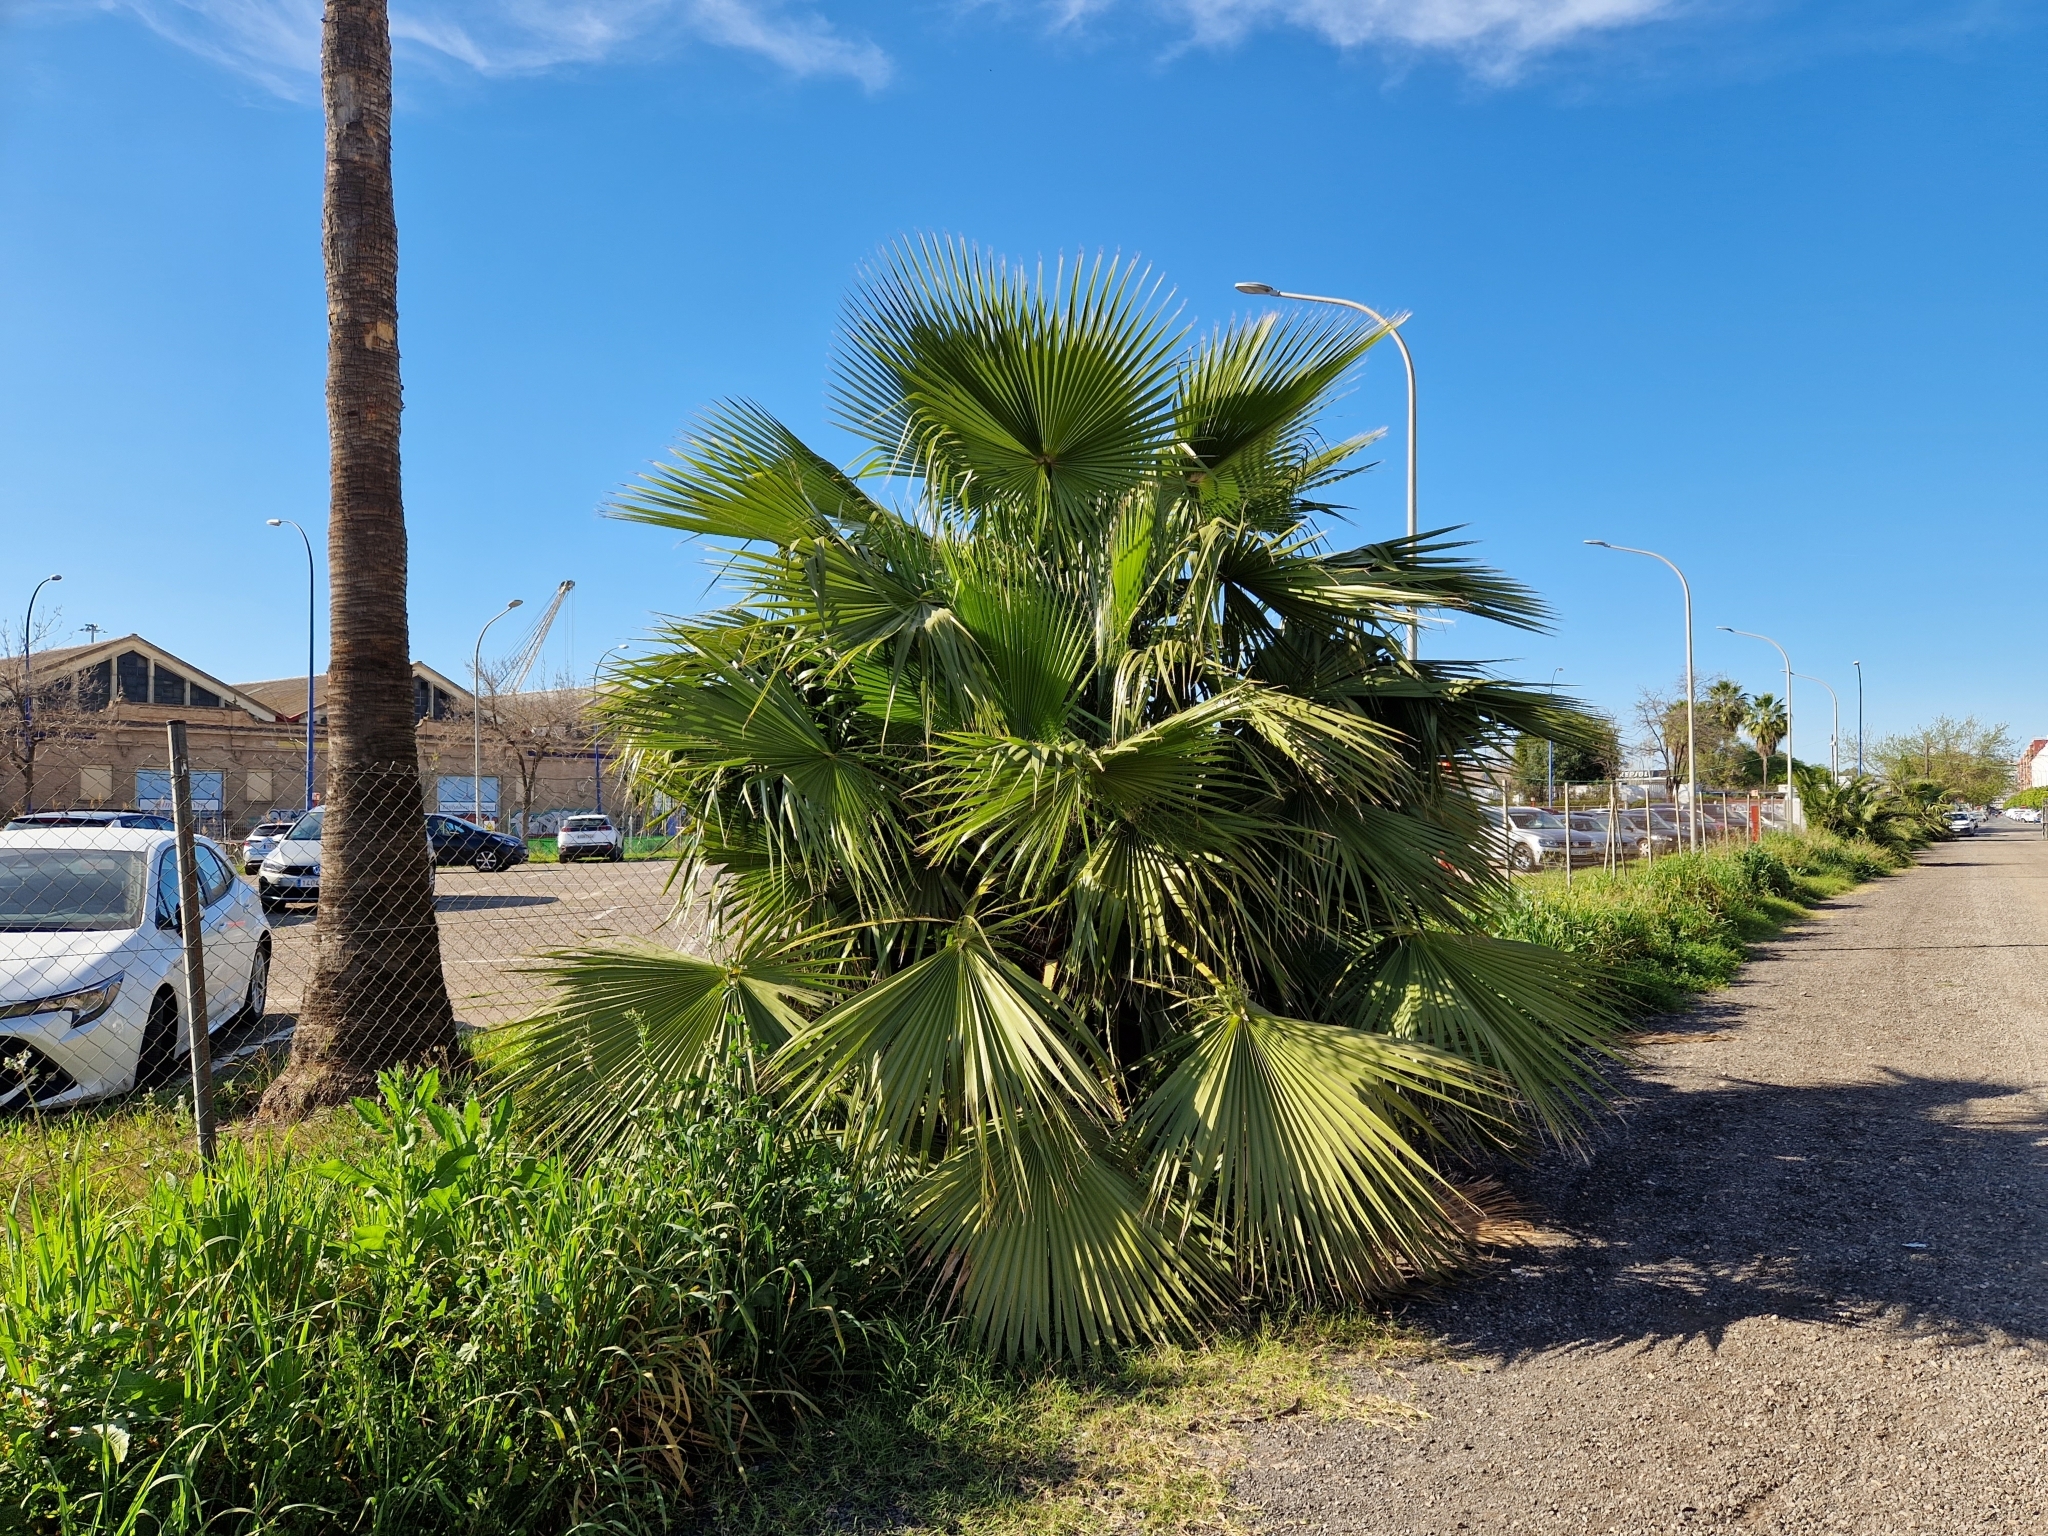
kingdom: Plantae
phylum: Tracheophyta
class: Liliopsida
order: Arecales
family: Arecaceae
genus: Washingtonia
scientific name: Washingtonia robusta
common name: Mexican fan palm
